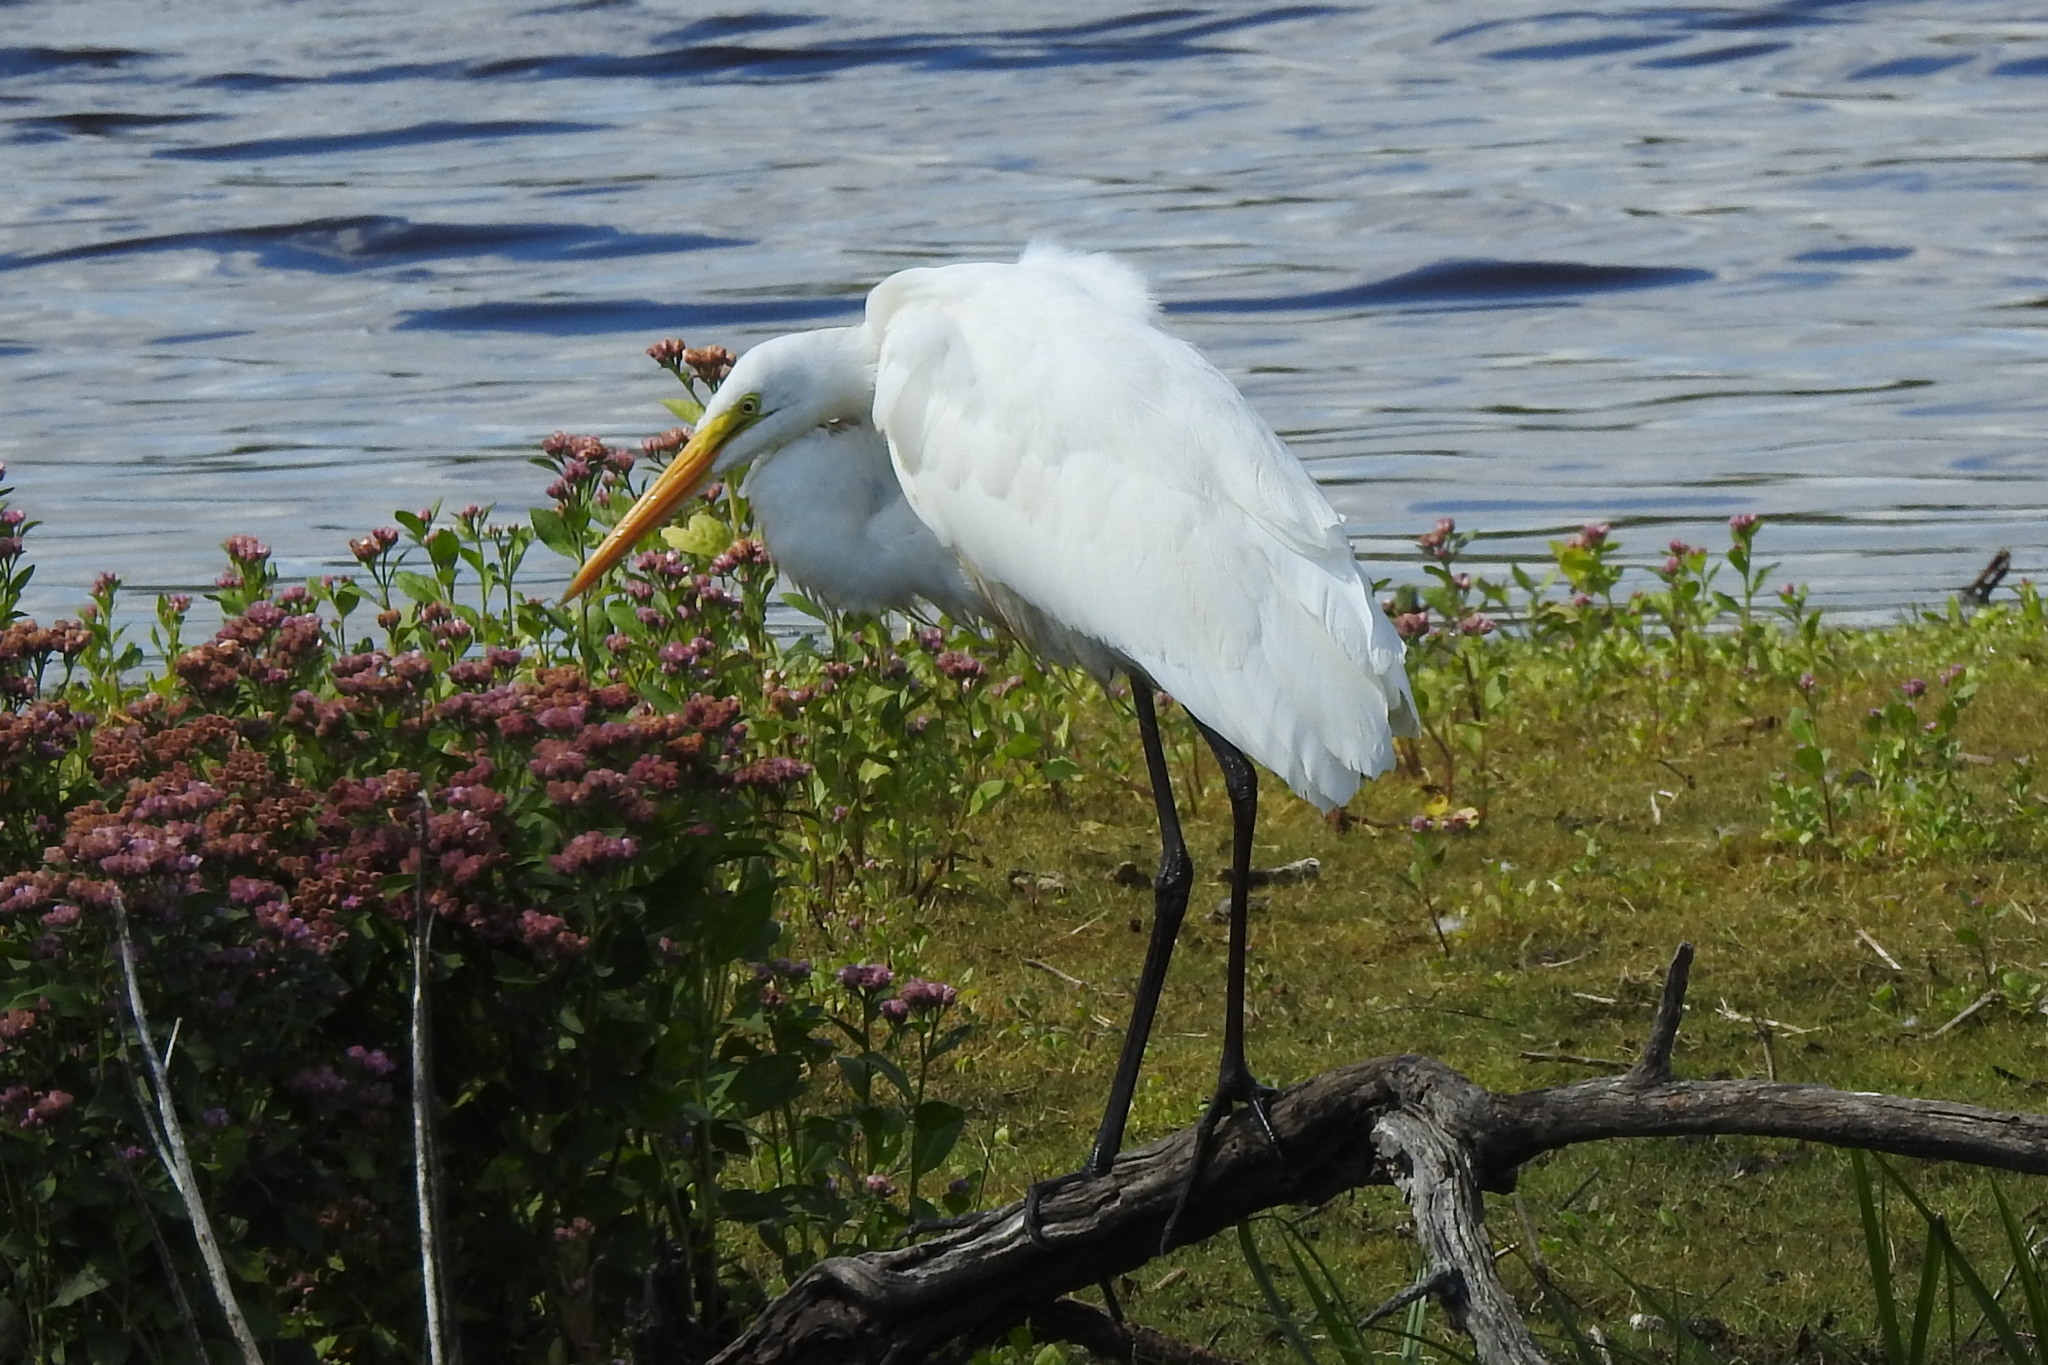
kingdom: Animalia
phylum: Chordata
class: Aves
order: Pelecaniformes
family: Ardeidae
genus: Ardea
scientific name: Ardea alba
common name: Great egret
